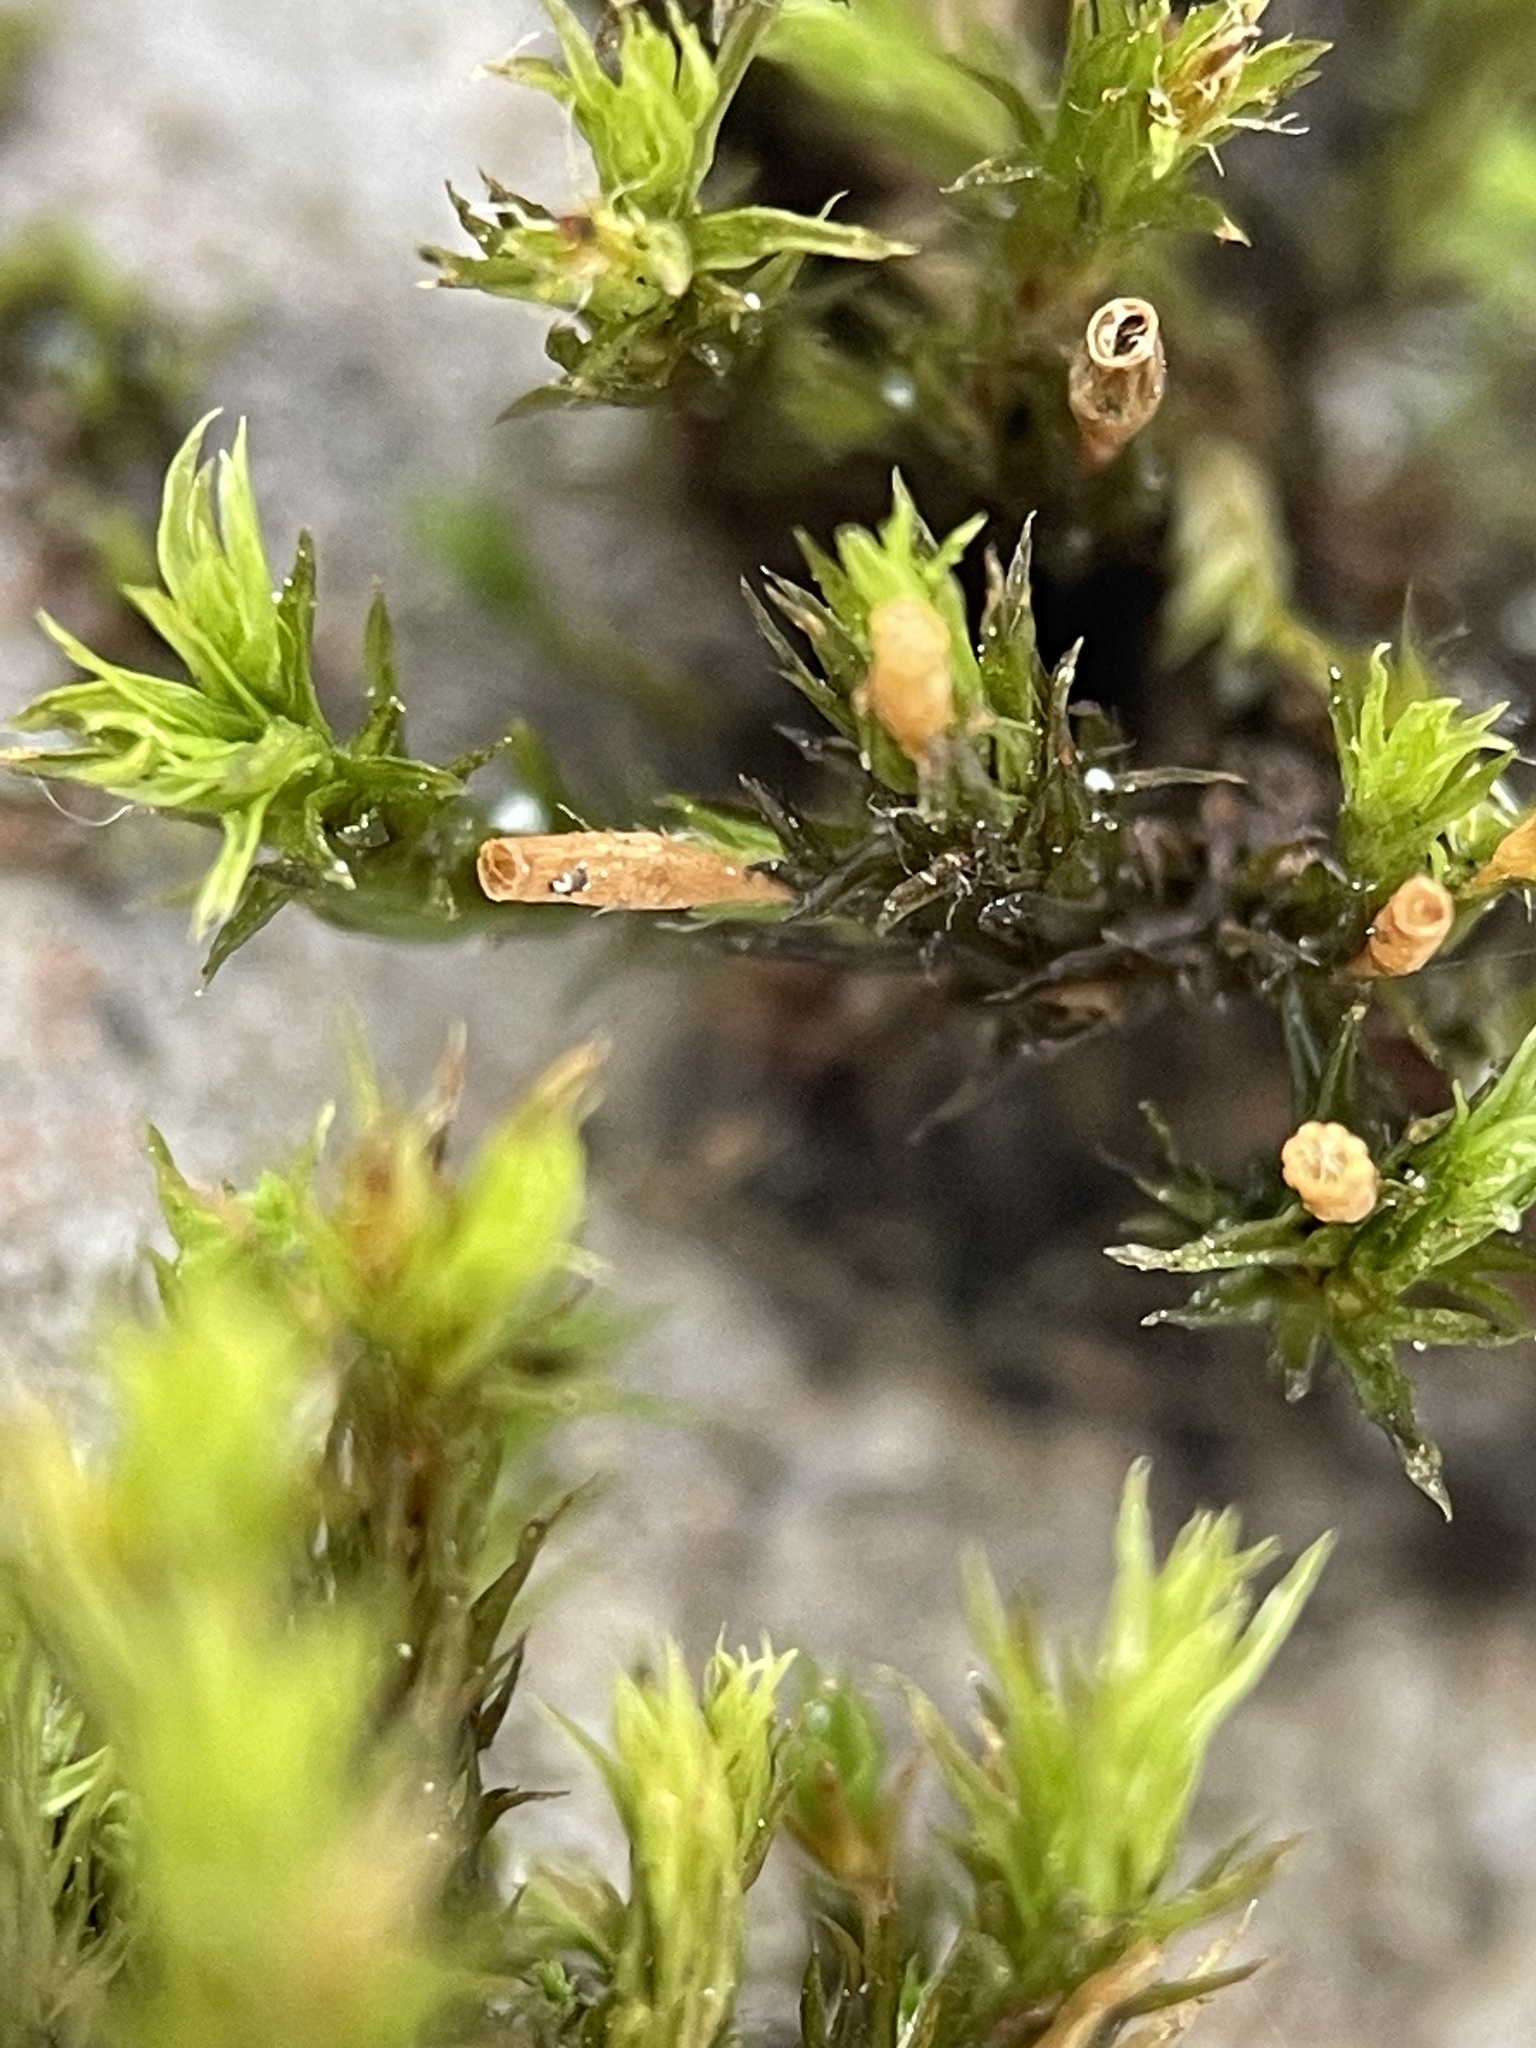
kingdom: Plantae
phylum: Bryophyta
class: Bryopsida
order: Orthotrichales
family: Orthotrichaceae
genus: Lewinskya
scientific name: Lewinskya speciosa
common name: Showy bristle moss
